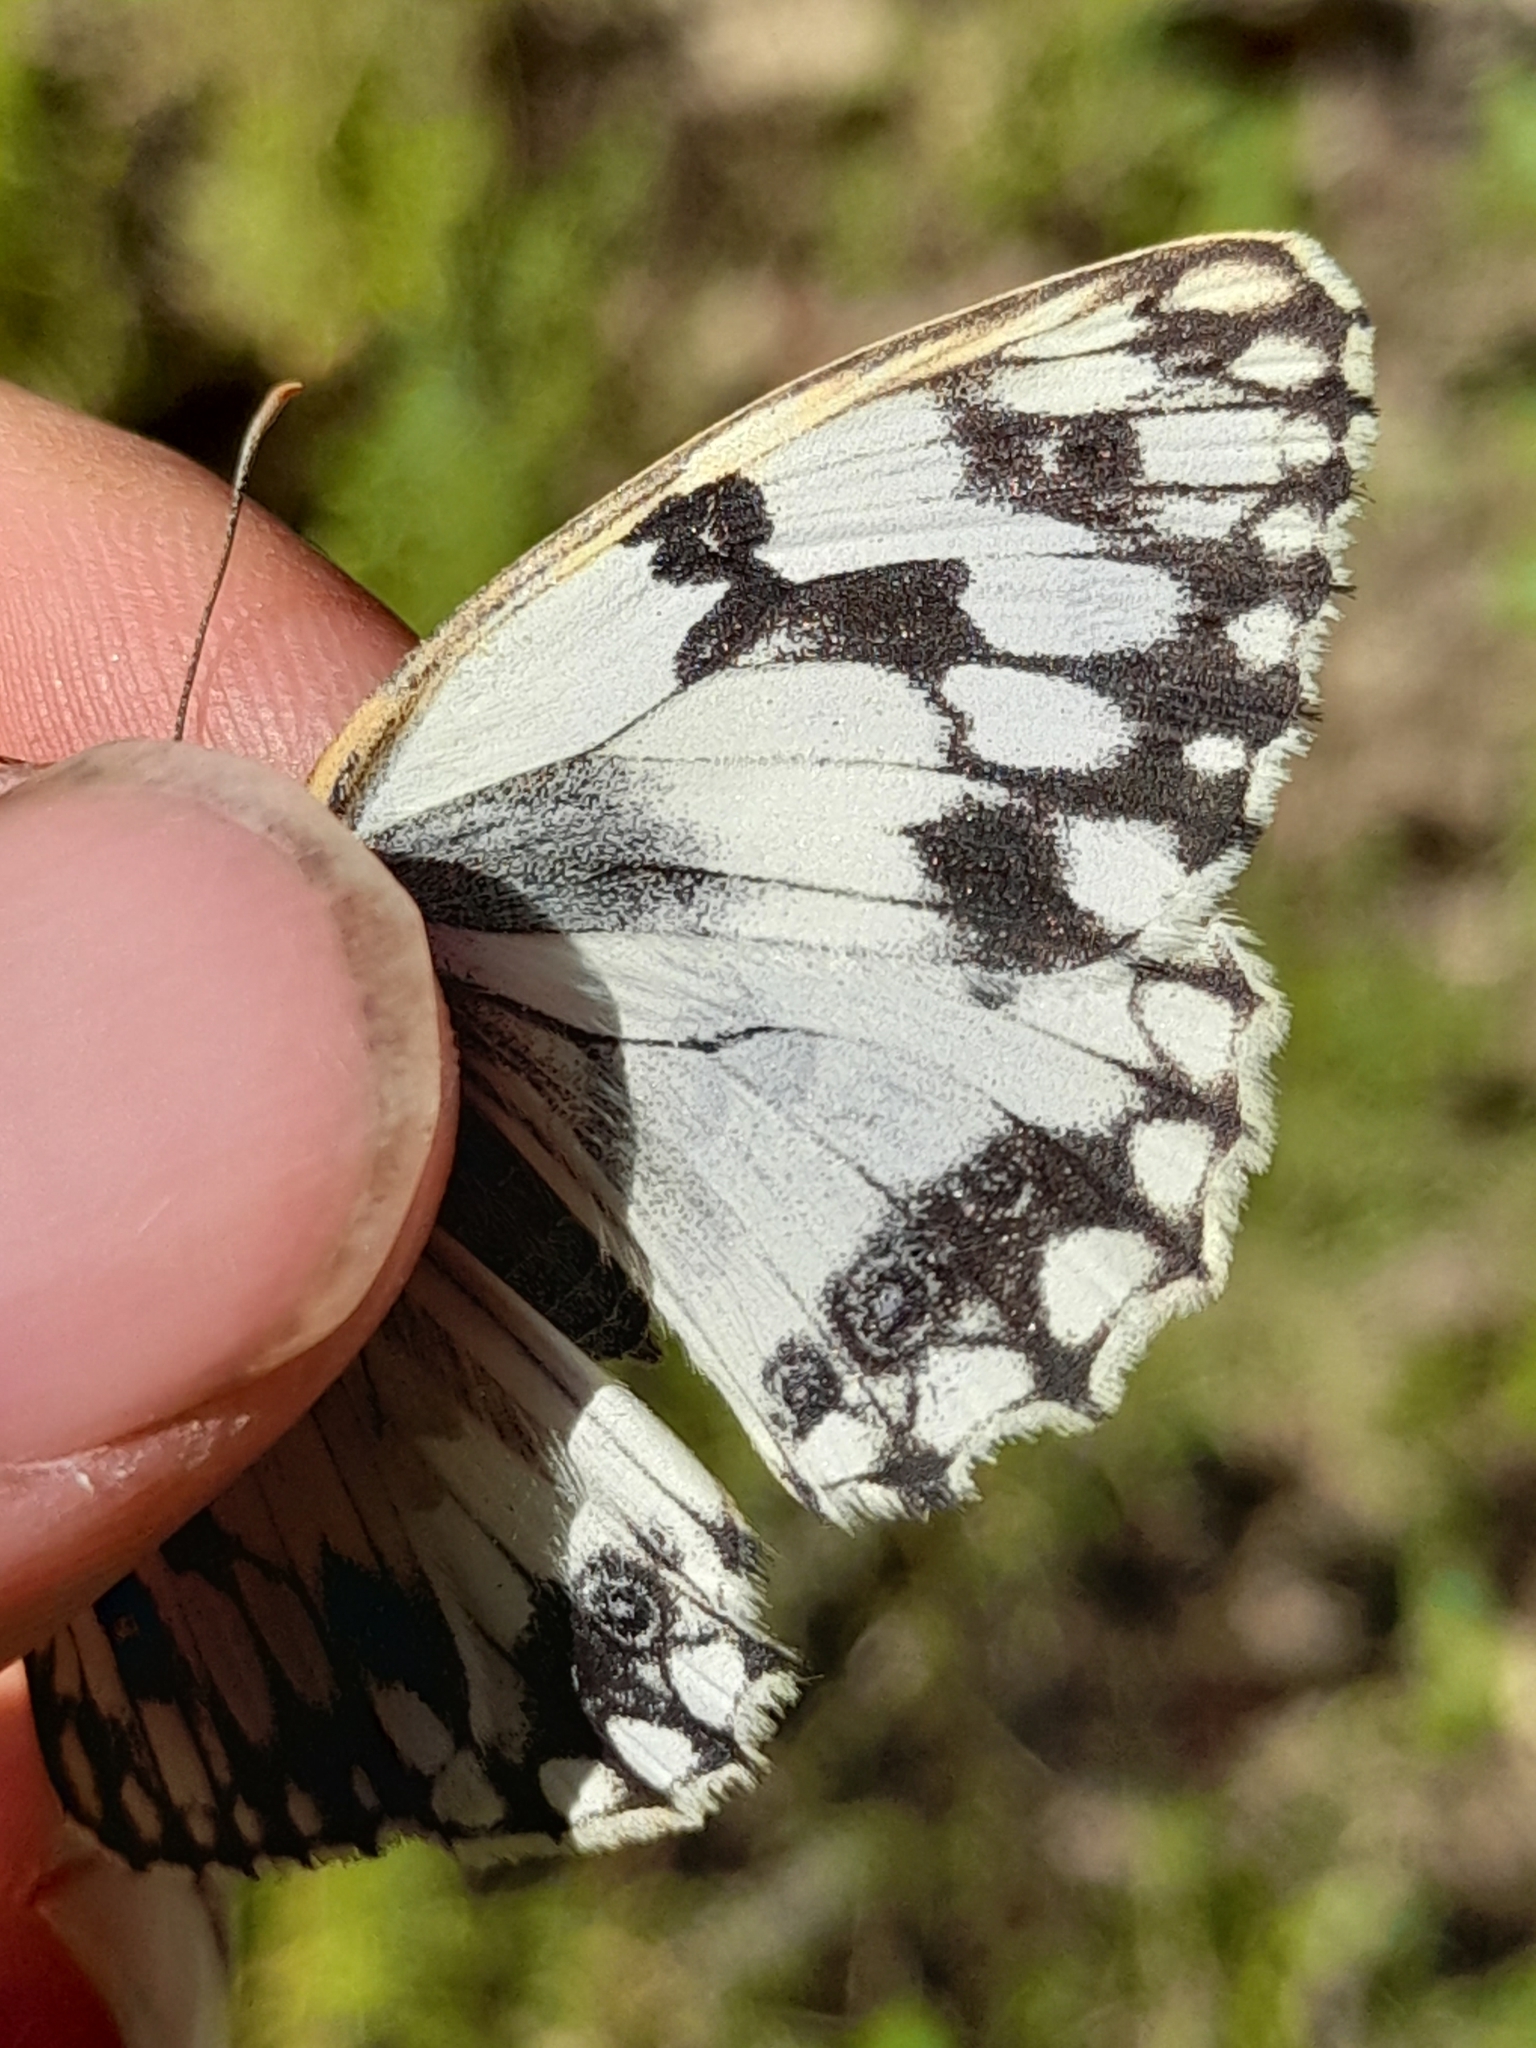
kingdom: Animalia
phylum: Arthropoda
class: Insecta
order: Lepidoptera
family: Nymphalidae
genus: Melanargia
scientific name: Melanargia lachesis
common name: Iberian marbled white
